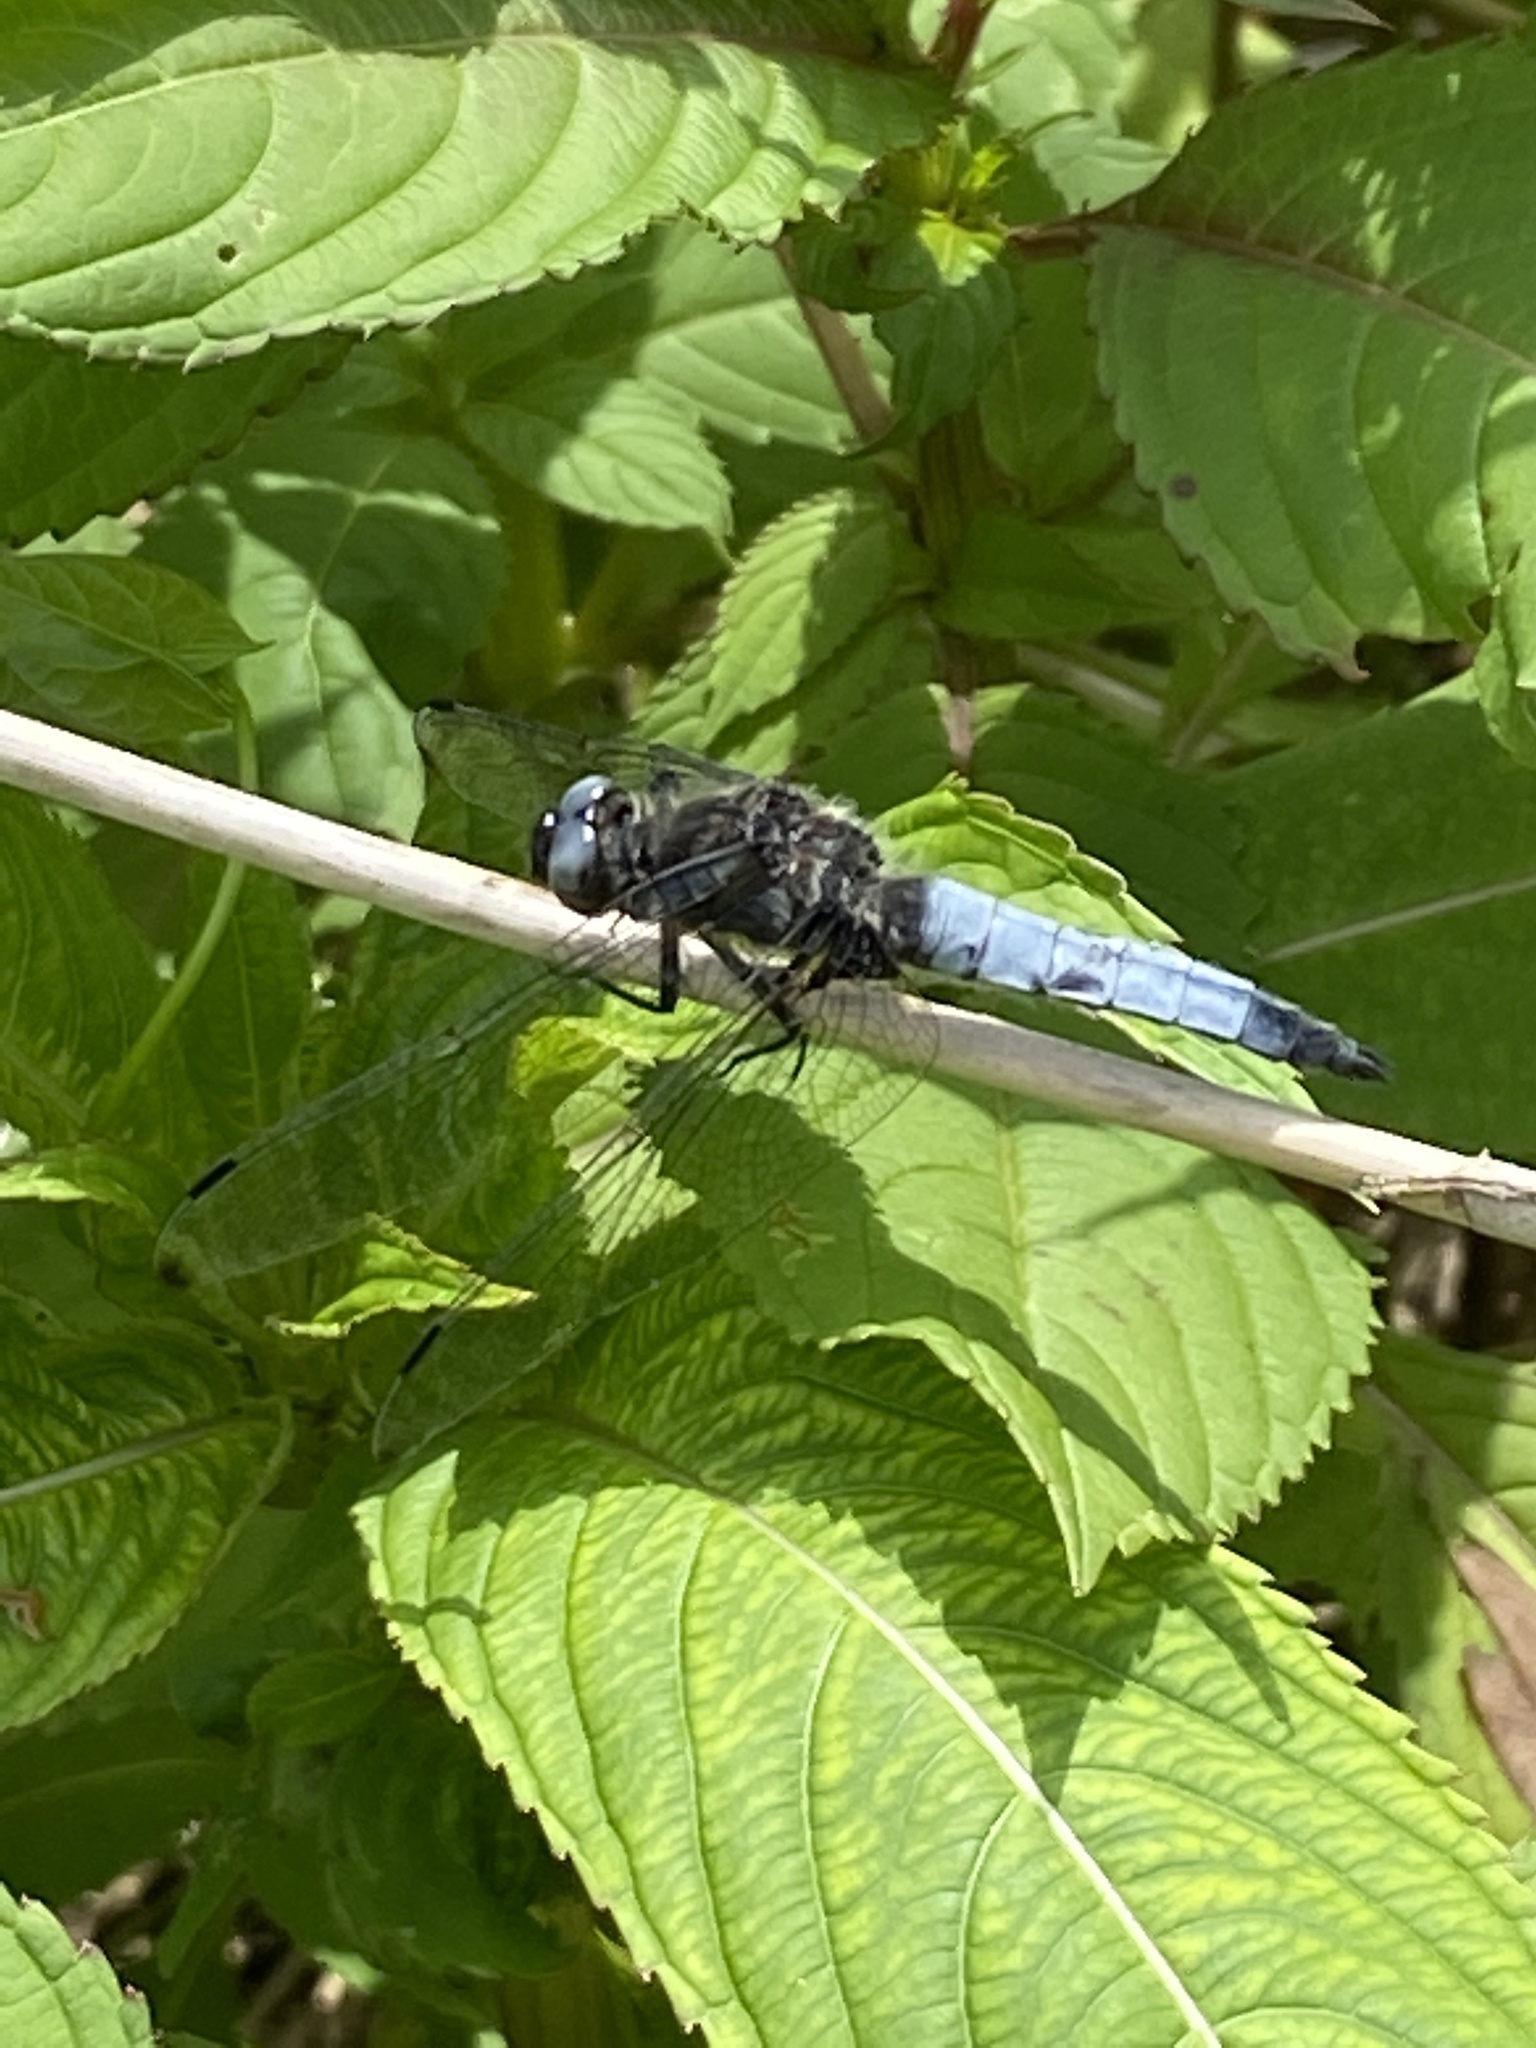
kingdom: Animalia
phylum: Arthropoda
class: Insecta
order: Odonata
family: Libellulidae
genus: Libellula
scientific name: Libellula fulva
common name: Blue chaser
